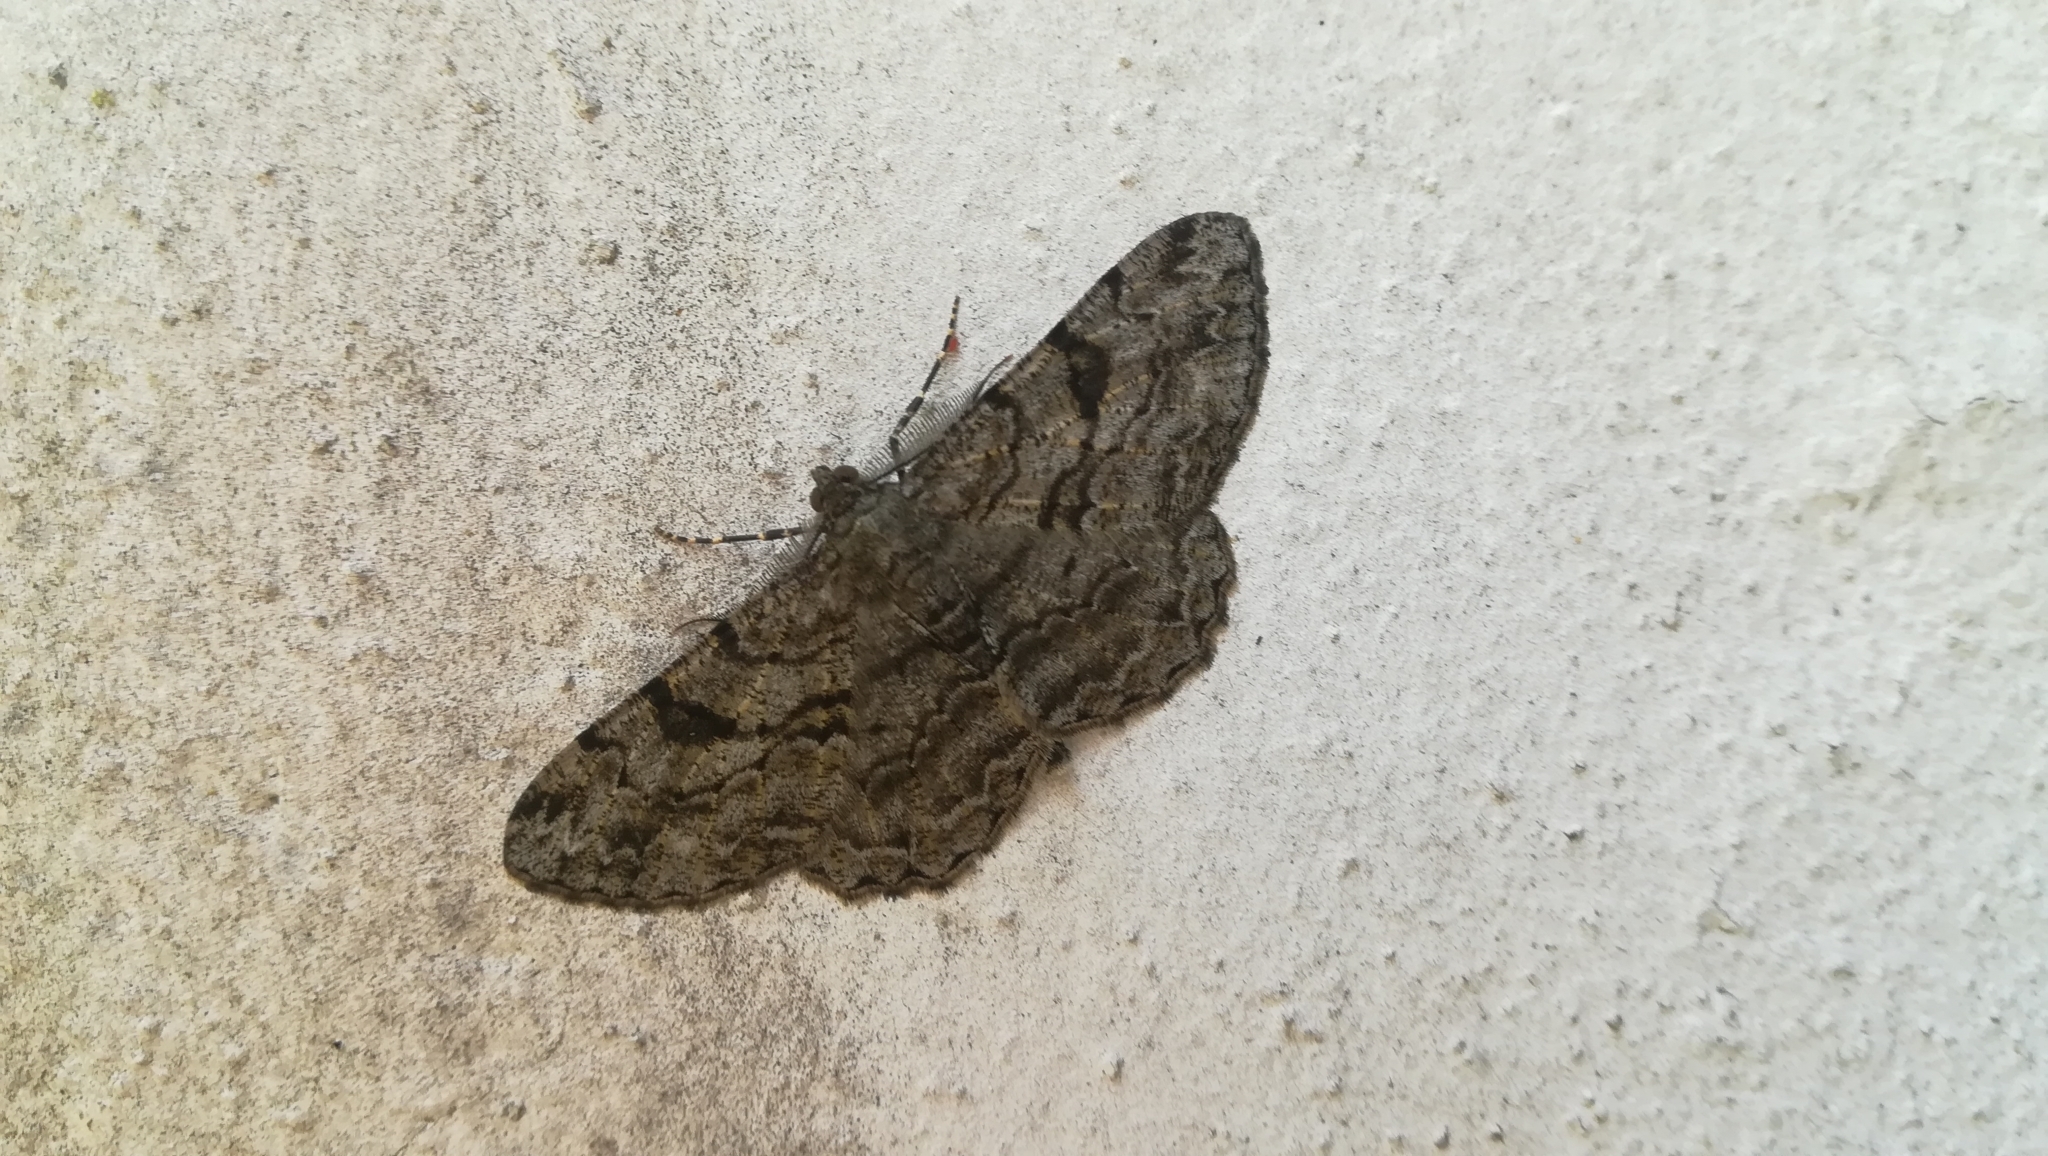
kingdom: Animalia
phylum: Arthropoda
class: Insecta
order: Lepidoptera
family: Geometridae
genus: Peribatodes
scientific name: Peribatodes rhomboidaria
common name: Willow beauty
